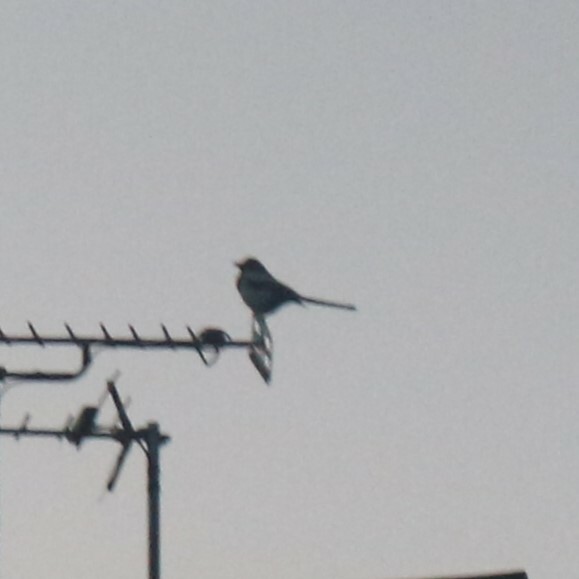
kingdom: Animalia
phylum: Chordata
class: Aves
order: Passeriformes
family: Corvidae
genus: Pica
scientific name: Pica pica
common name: Eurasian magpie
